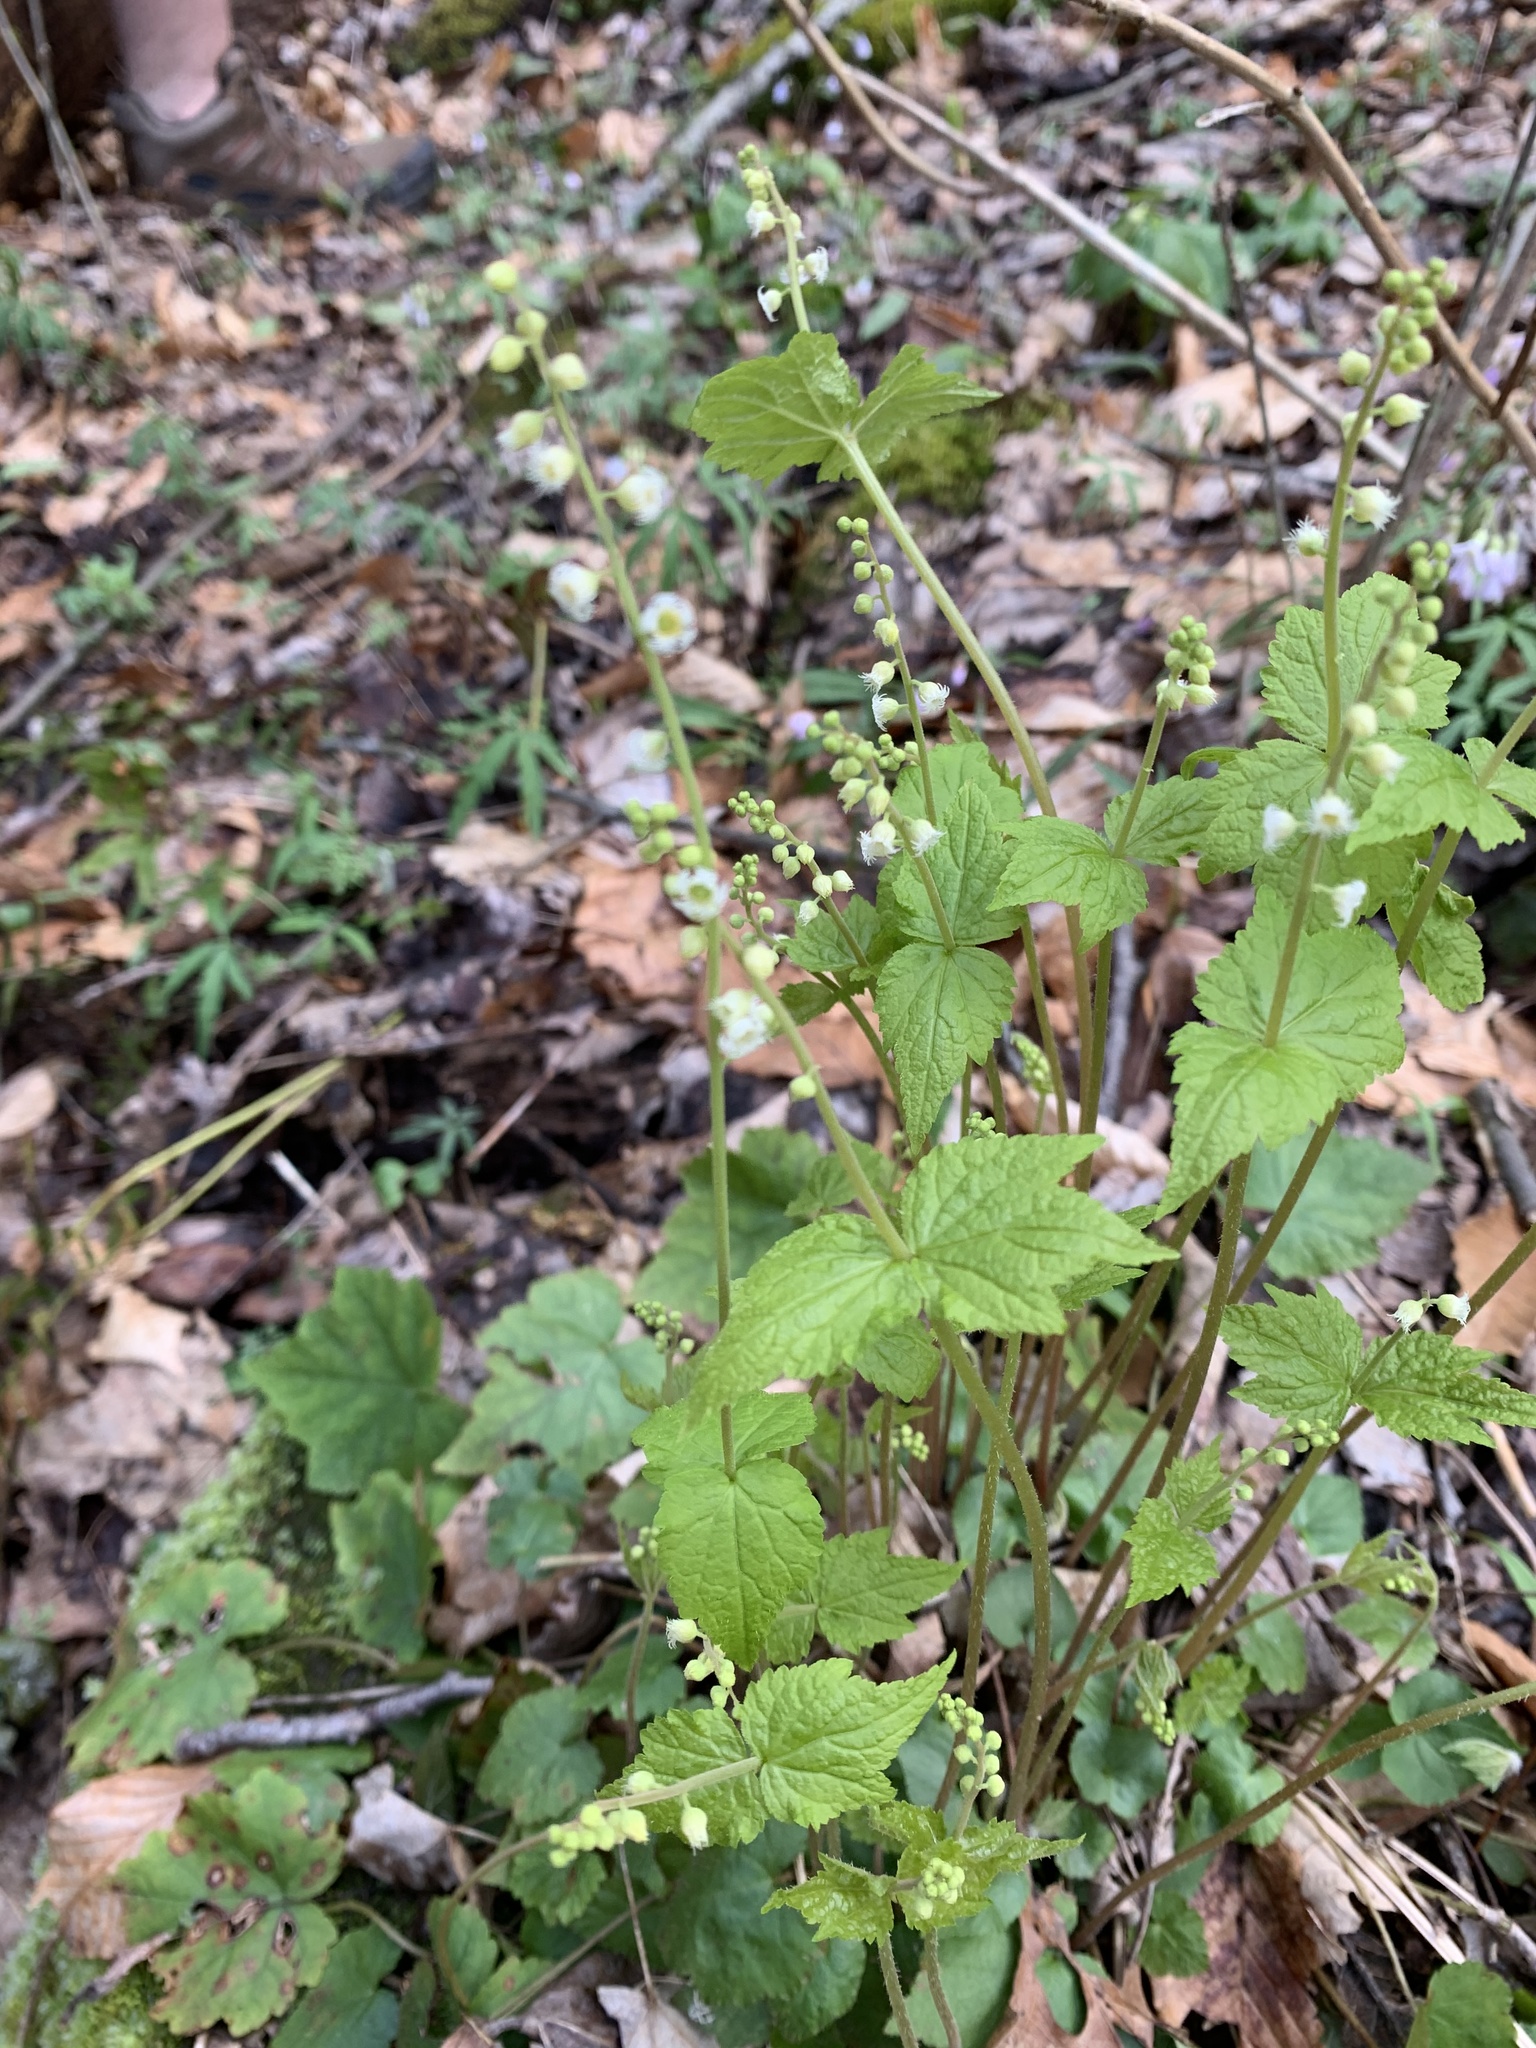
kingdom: Plantae
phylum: Tracheophyta
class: Magnoliopsida
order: Saxifragales
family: Saxifragaceae
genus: Mitella
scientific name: Mitella diphylla
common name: Coolwort
